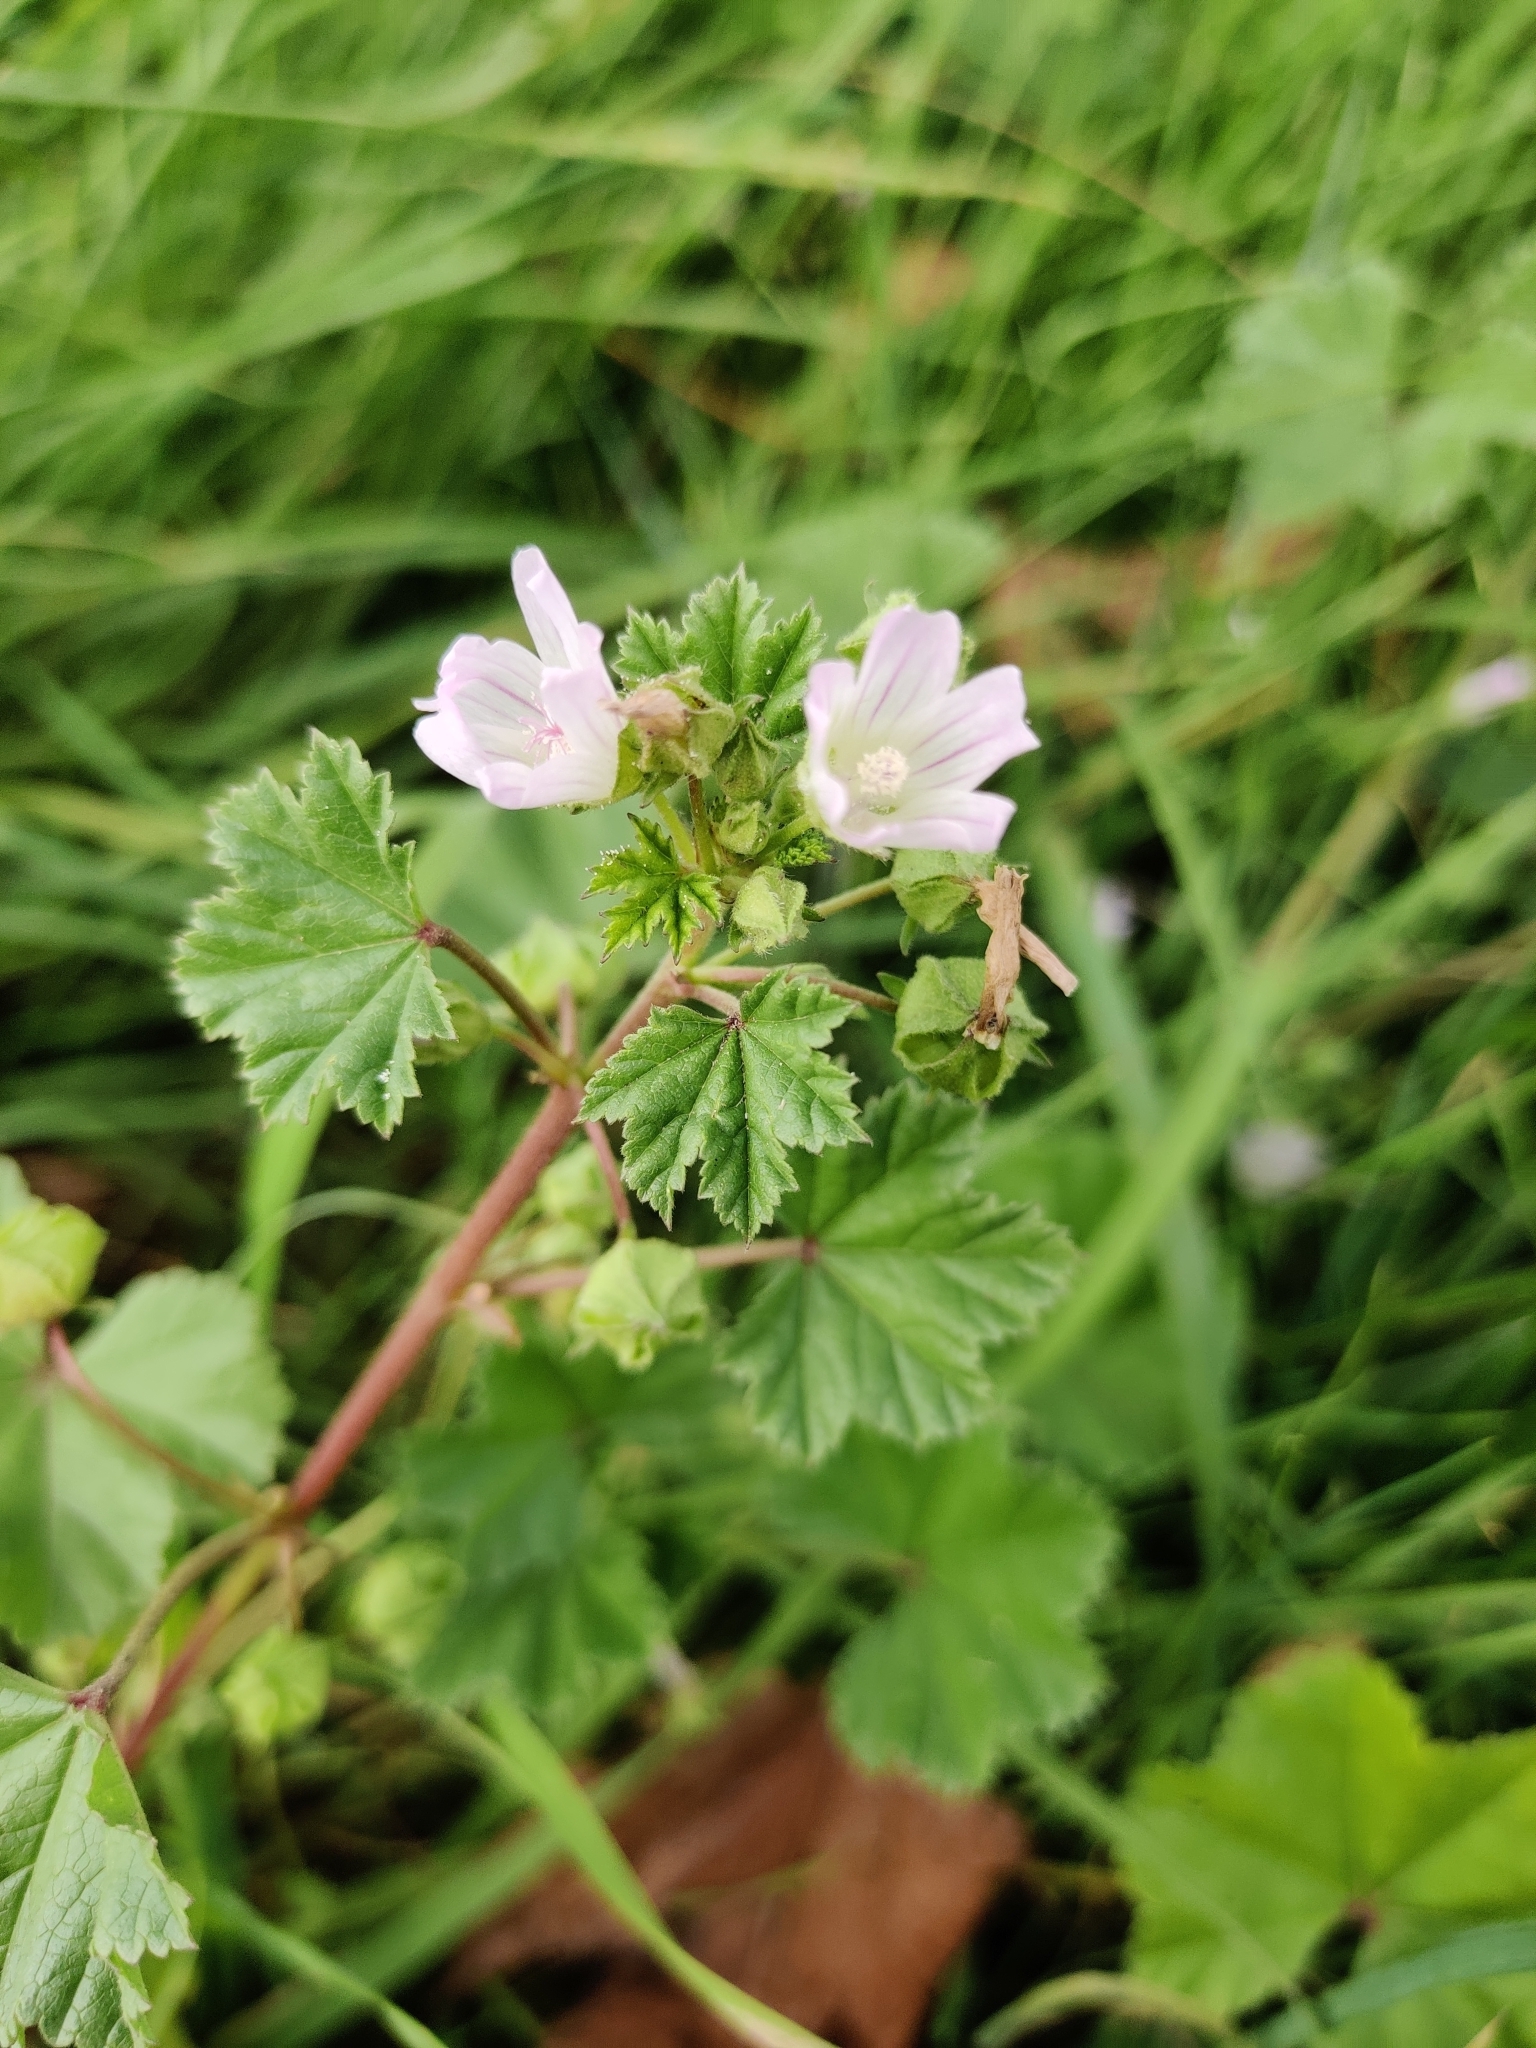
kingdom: Plantae
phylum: Tracheophyta
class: Magnoliopsida
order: Malvales
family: Malvaceae
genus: Malva
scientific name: Malva neglecta
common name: Common mallow
